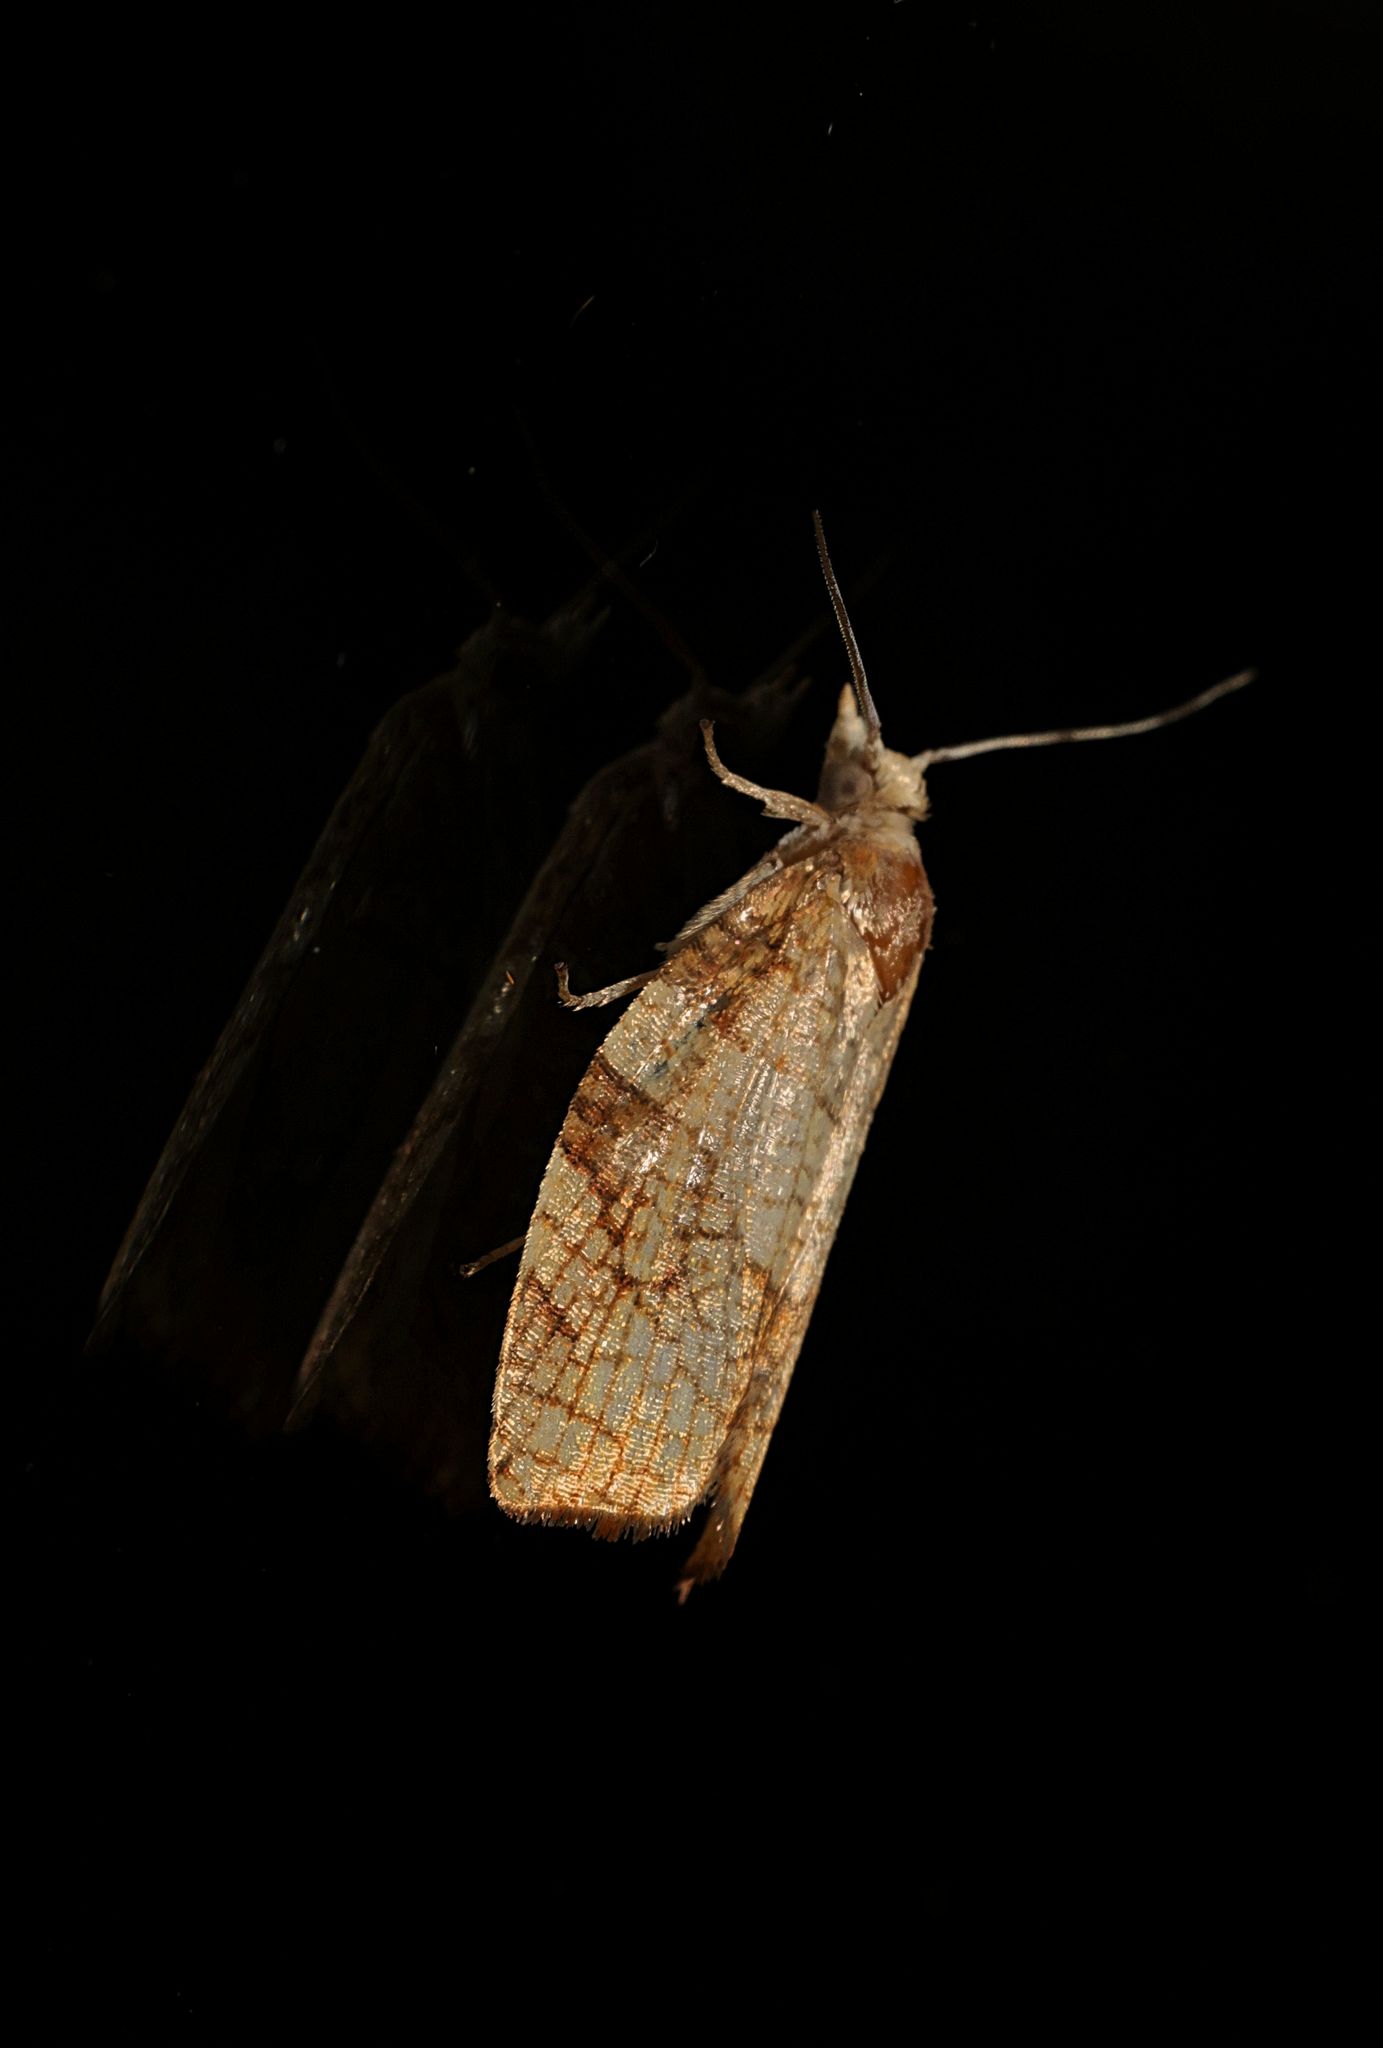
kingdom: Animalia
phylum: Arthropoda
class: Insecta
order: Lepidoptera
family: Tortricidae
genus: Pandemis
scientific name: Pandemis corylana
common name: Chequered fruit-tree tortrix
